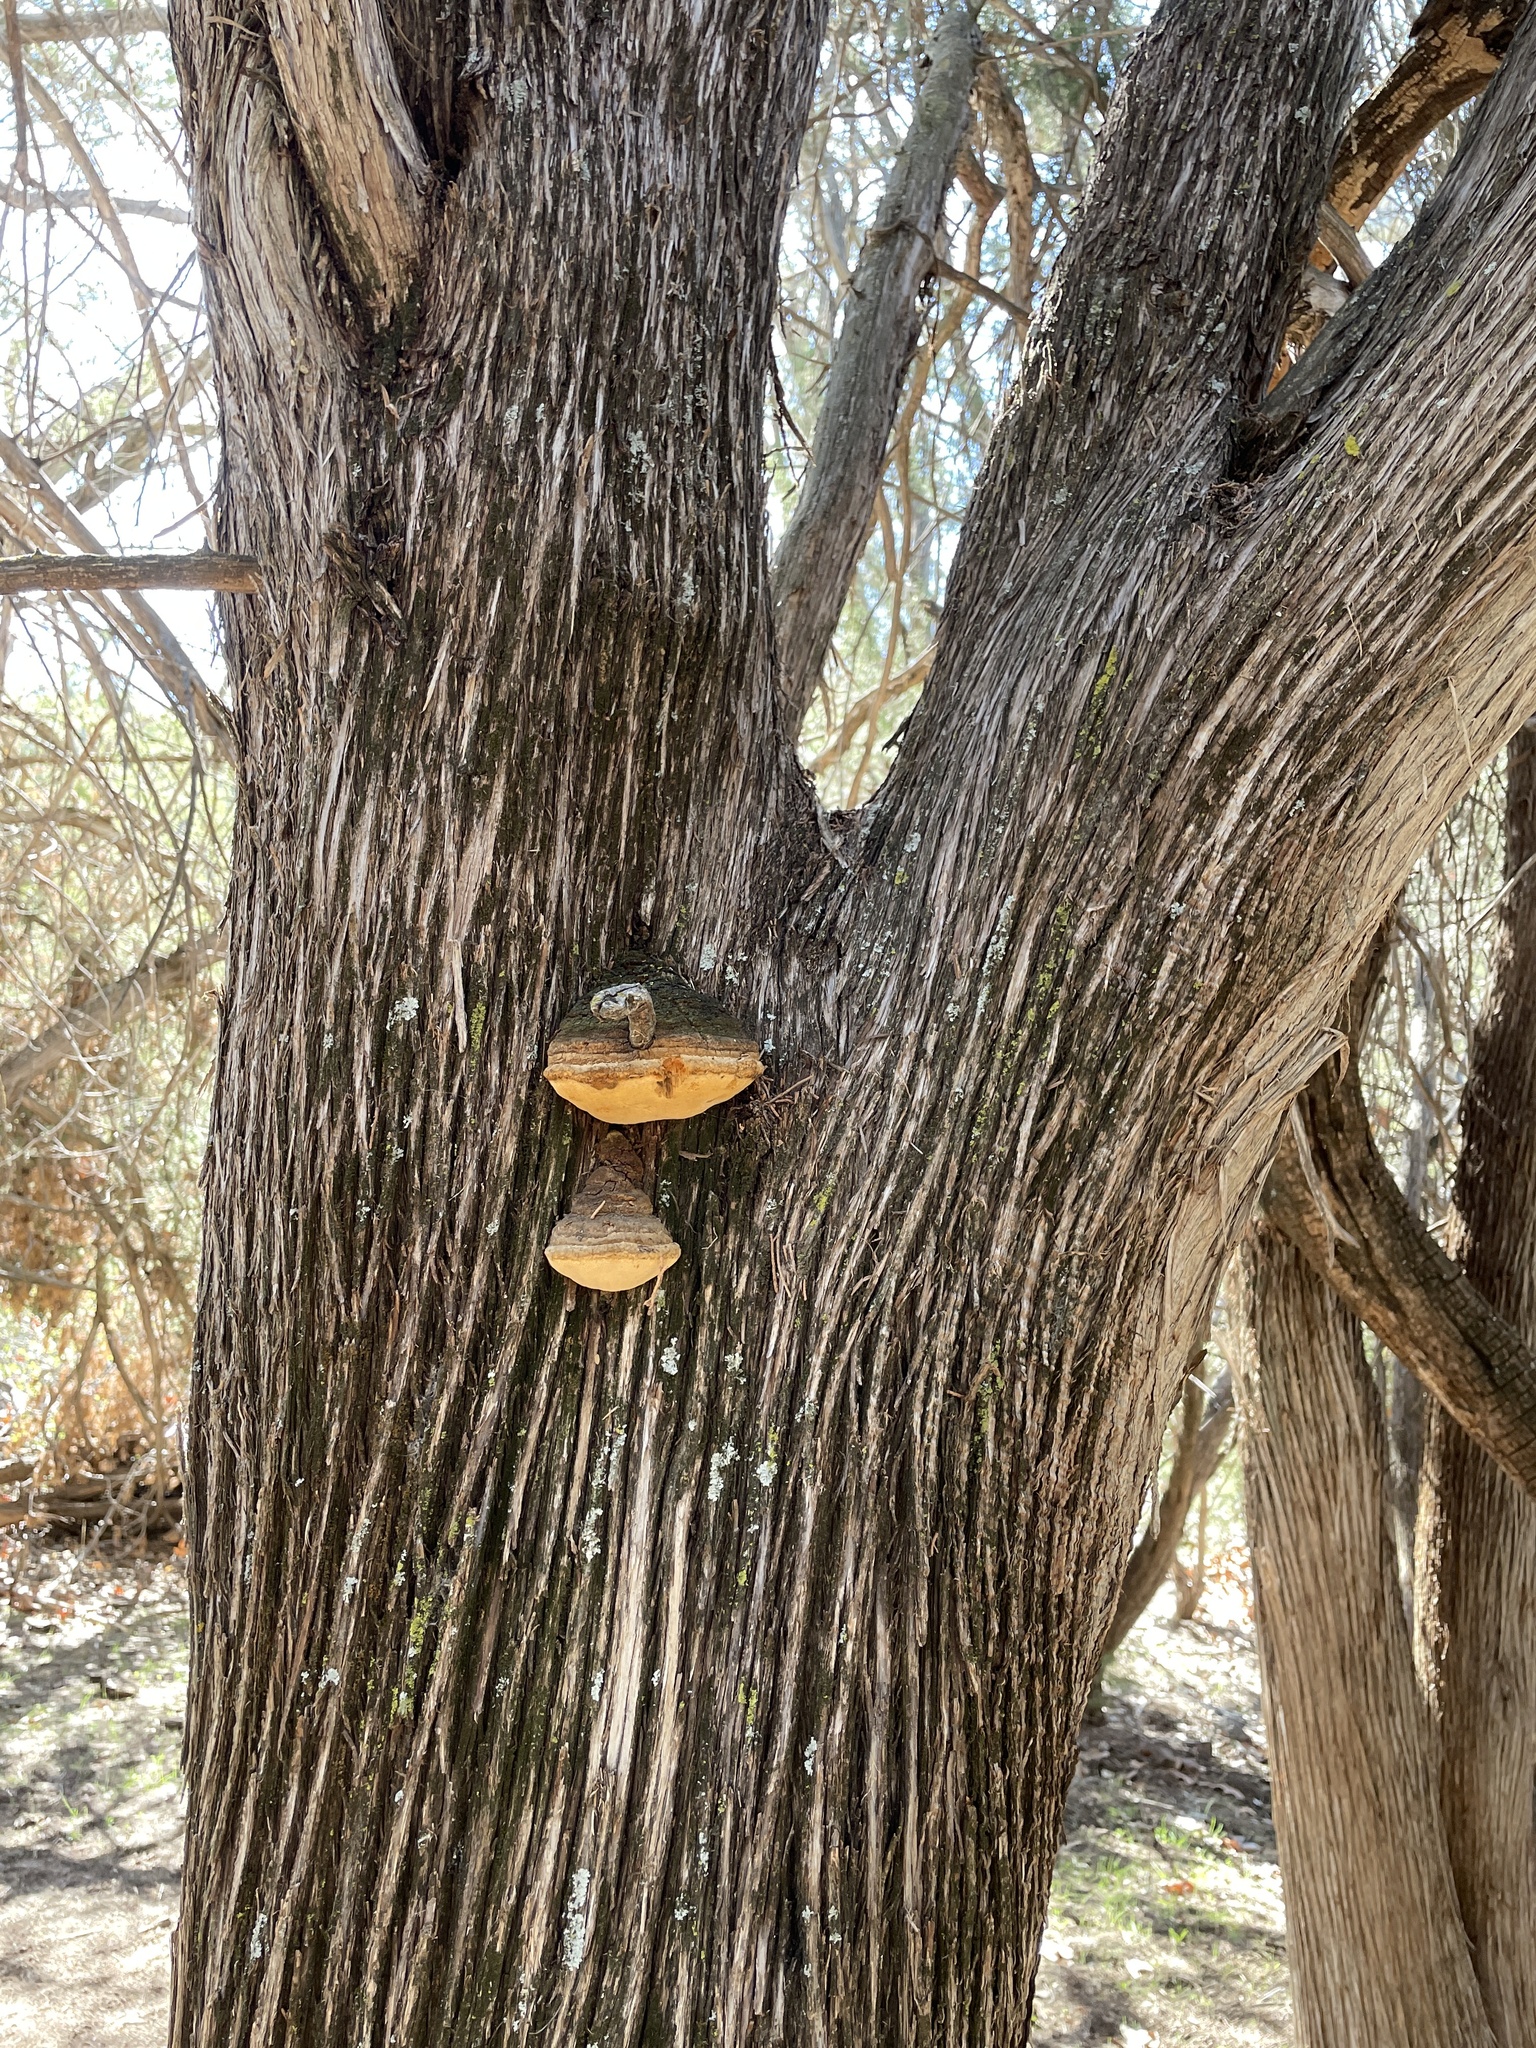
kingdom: Fungi
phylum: Basidiomycota
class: Agaricomycetes
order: Polyporales
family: Polyporaceae
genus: Pyrofomes
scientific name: Pyrofomes juniperinus
